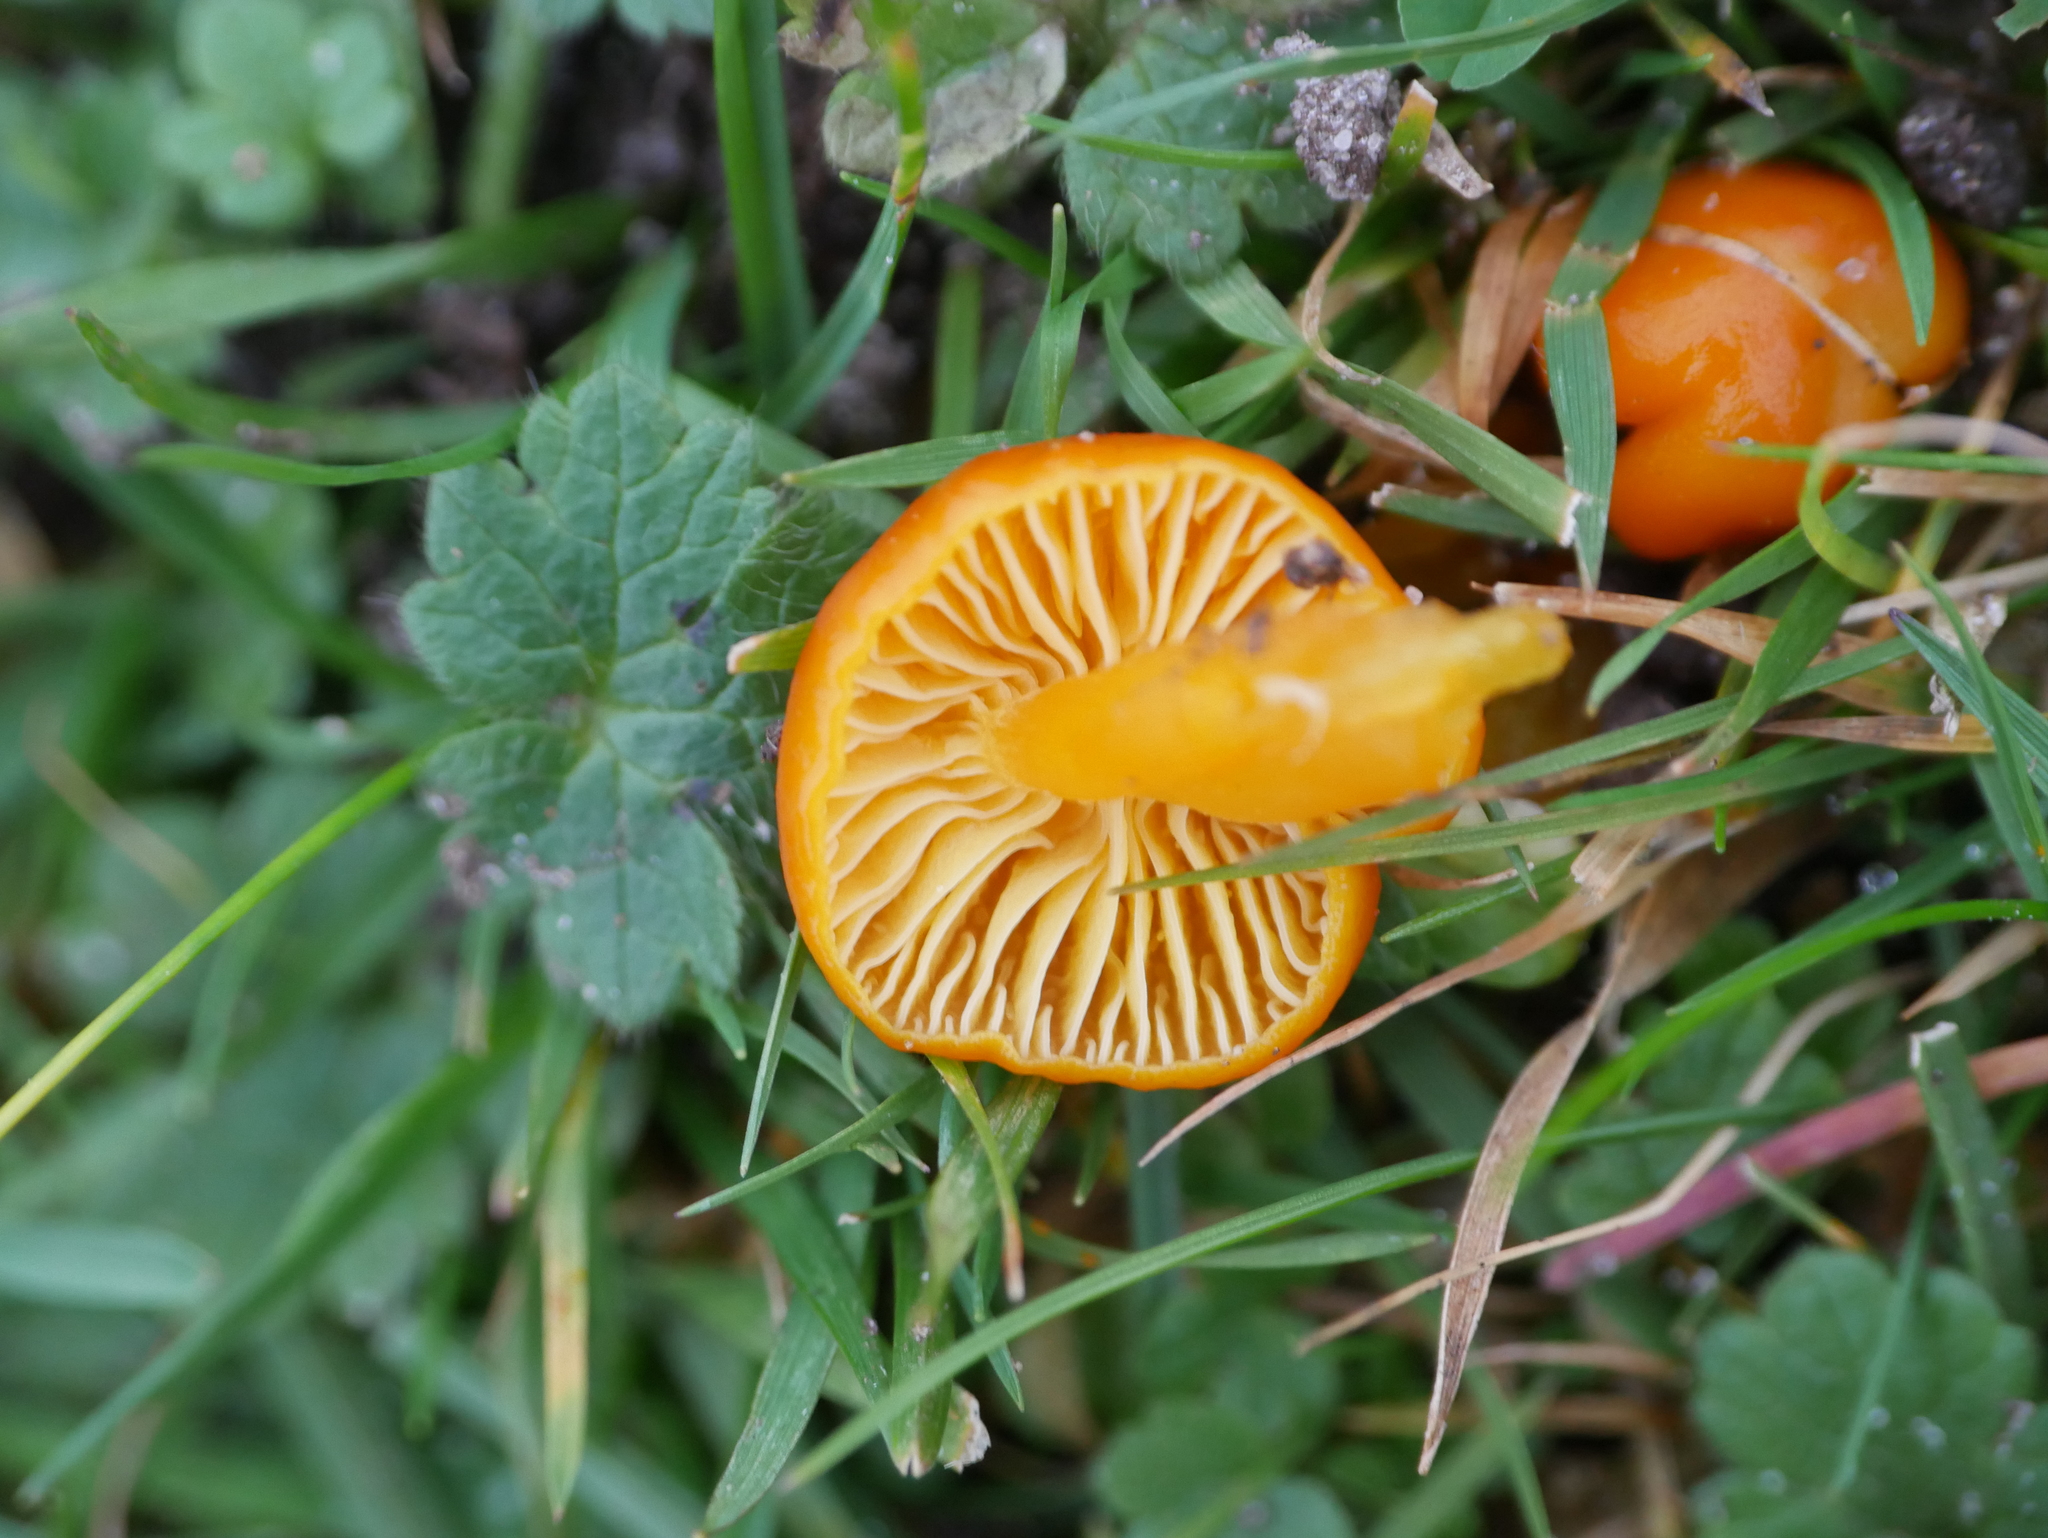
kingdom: Fungi
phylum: Basidiomycota
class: Agaricomycetes
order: Agaricales
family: Hygrophoraceae
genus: Hygrocybe
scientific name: Hygrocybe ceracea
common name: Butter waxcap
